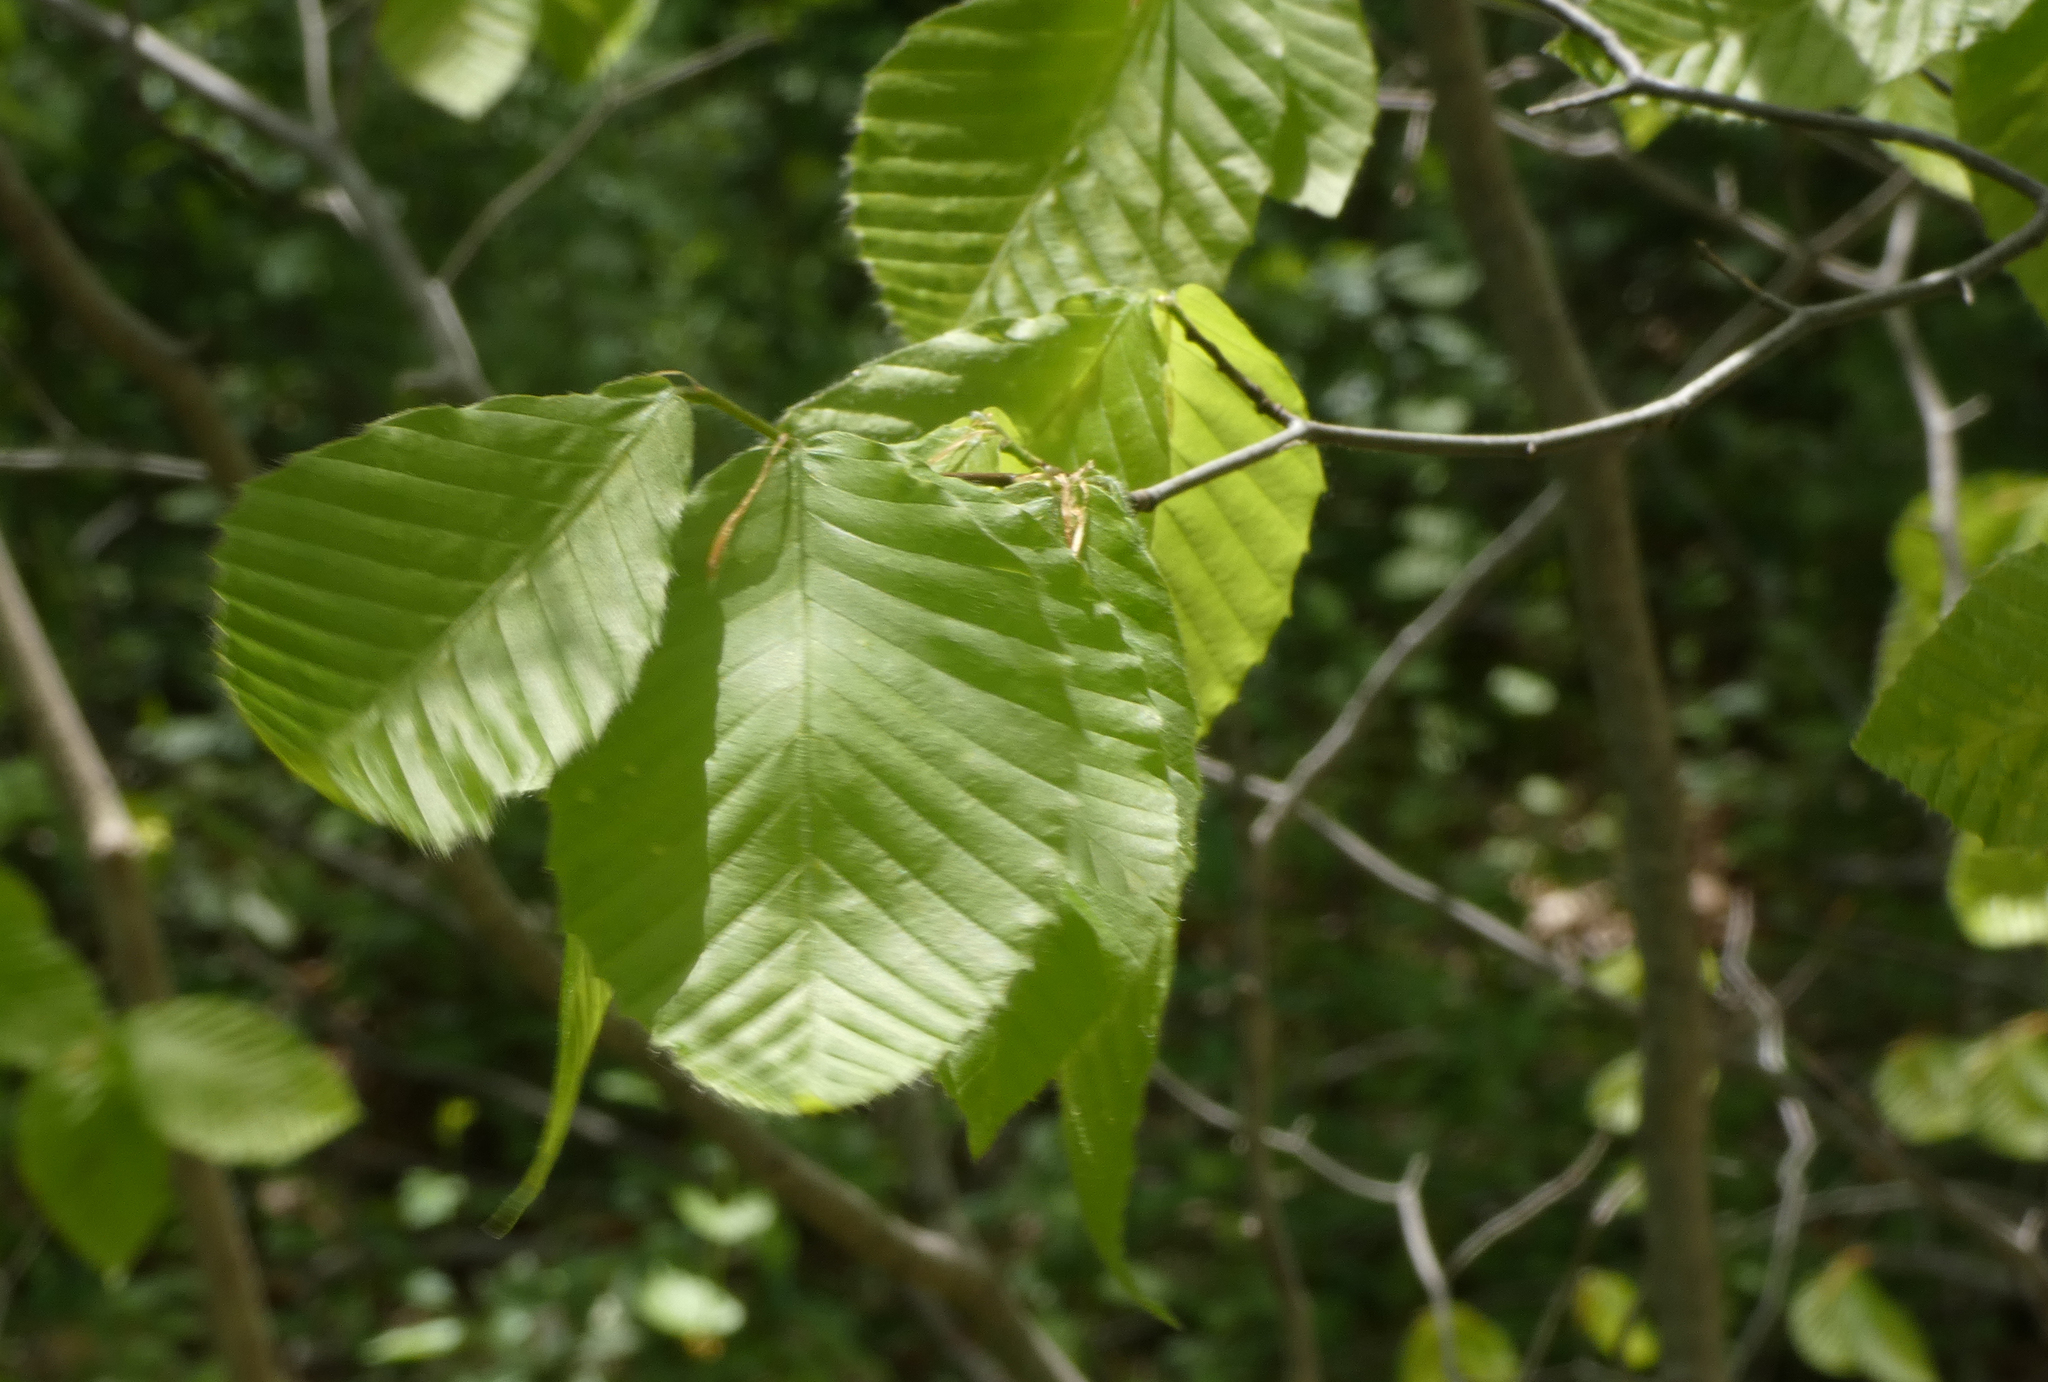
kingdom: Plantae
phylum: Tracheophyta
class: Magnoliopsida
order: Fagales
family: Fagaceae
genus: Fagus
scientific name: Fagus grandifolia
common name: American beech
